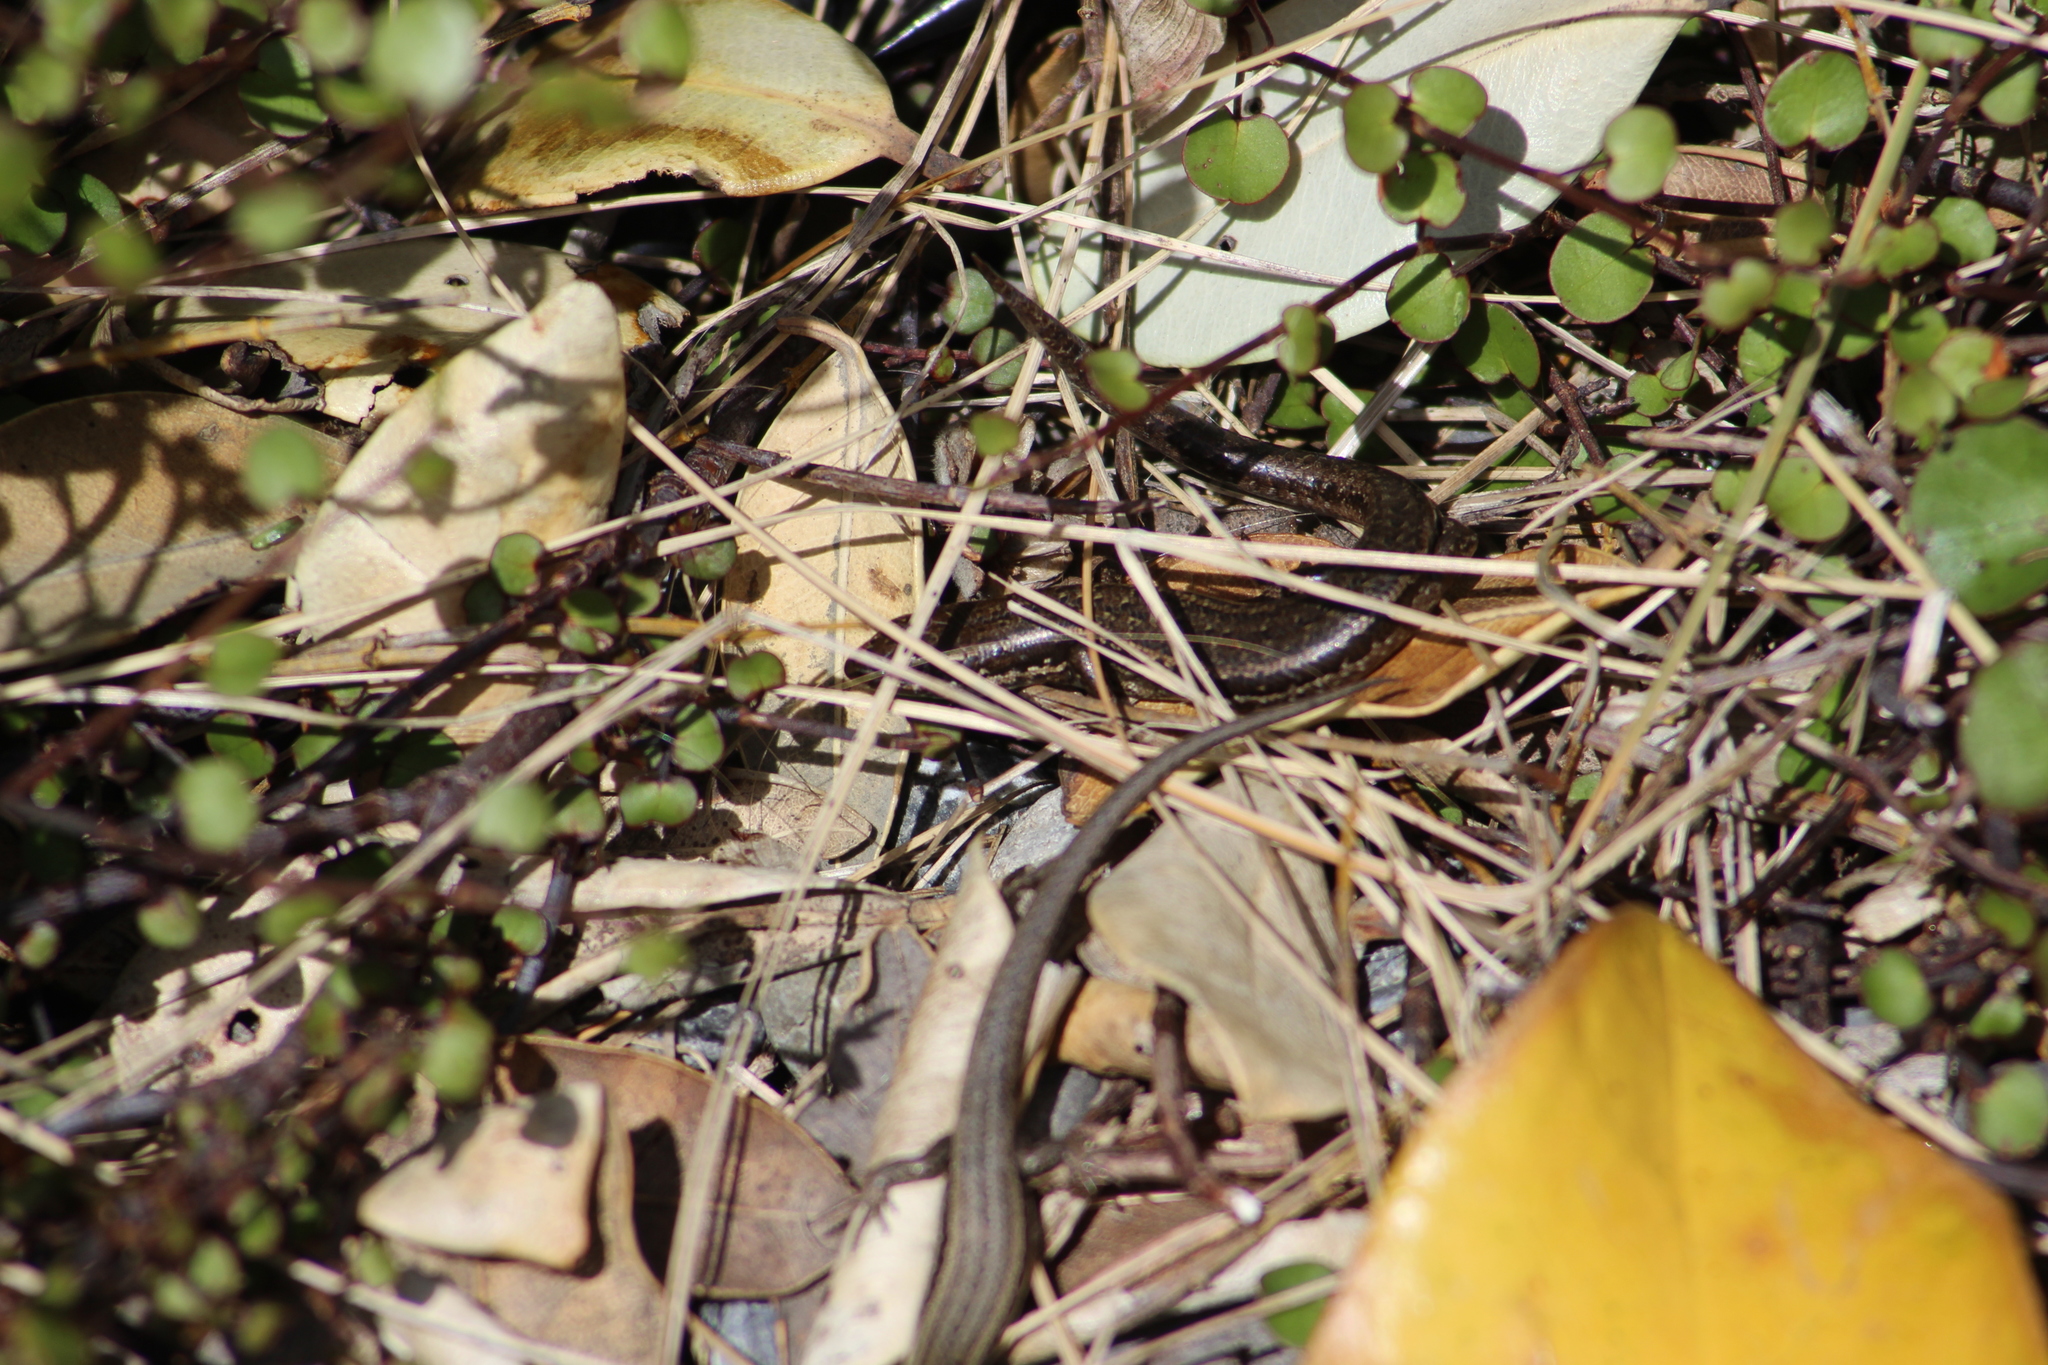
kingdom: Animalia
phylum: Chordata
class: Squamata
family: Scincidae
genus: Oligosoma
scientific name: Oligosoma polychroma
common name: Common new zealand skink
